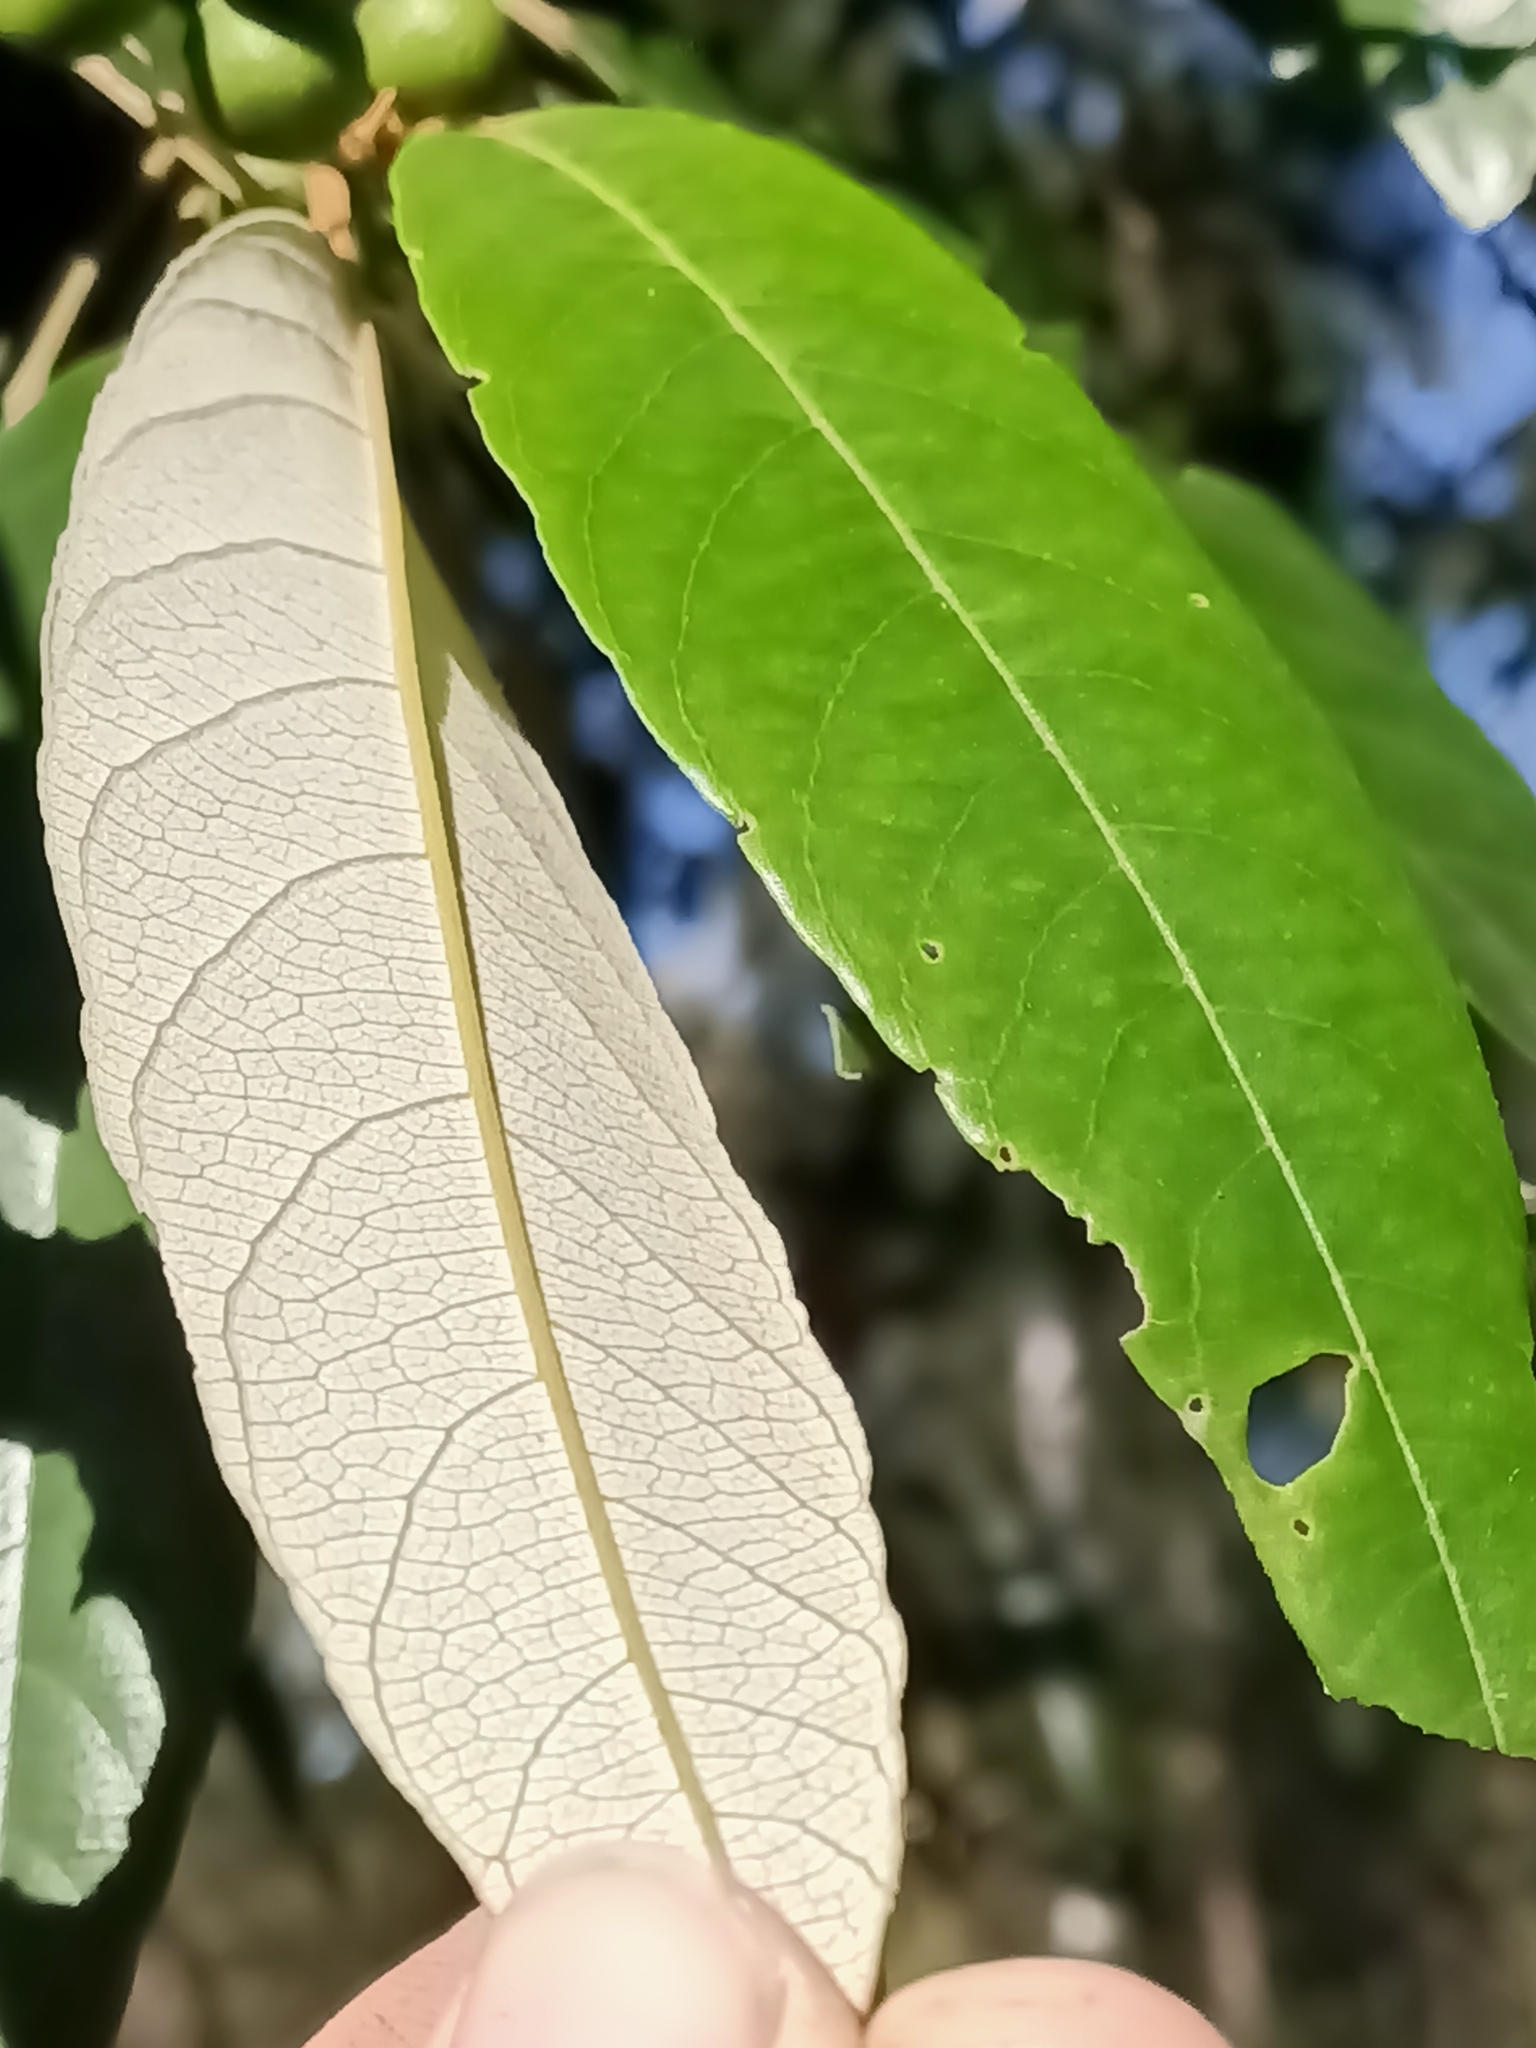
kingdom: Plantae
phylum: Tracheophyta
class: Magnoliopsida
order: Rosales
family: Rhamnaceae
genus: Alphitonia
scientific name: Alphitonia excelsa
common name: Red ash
